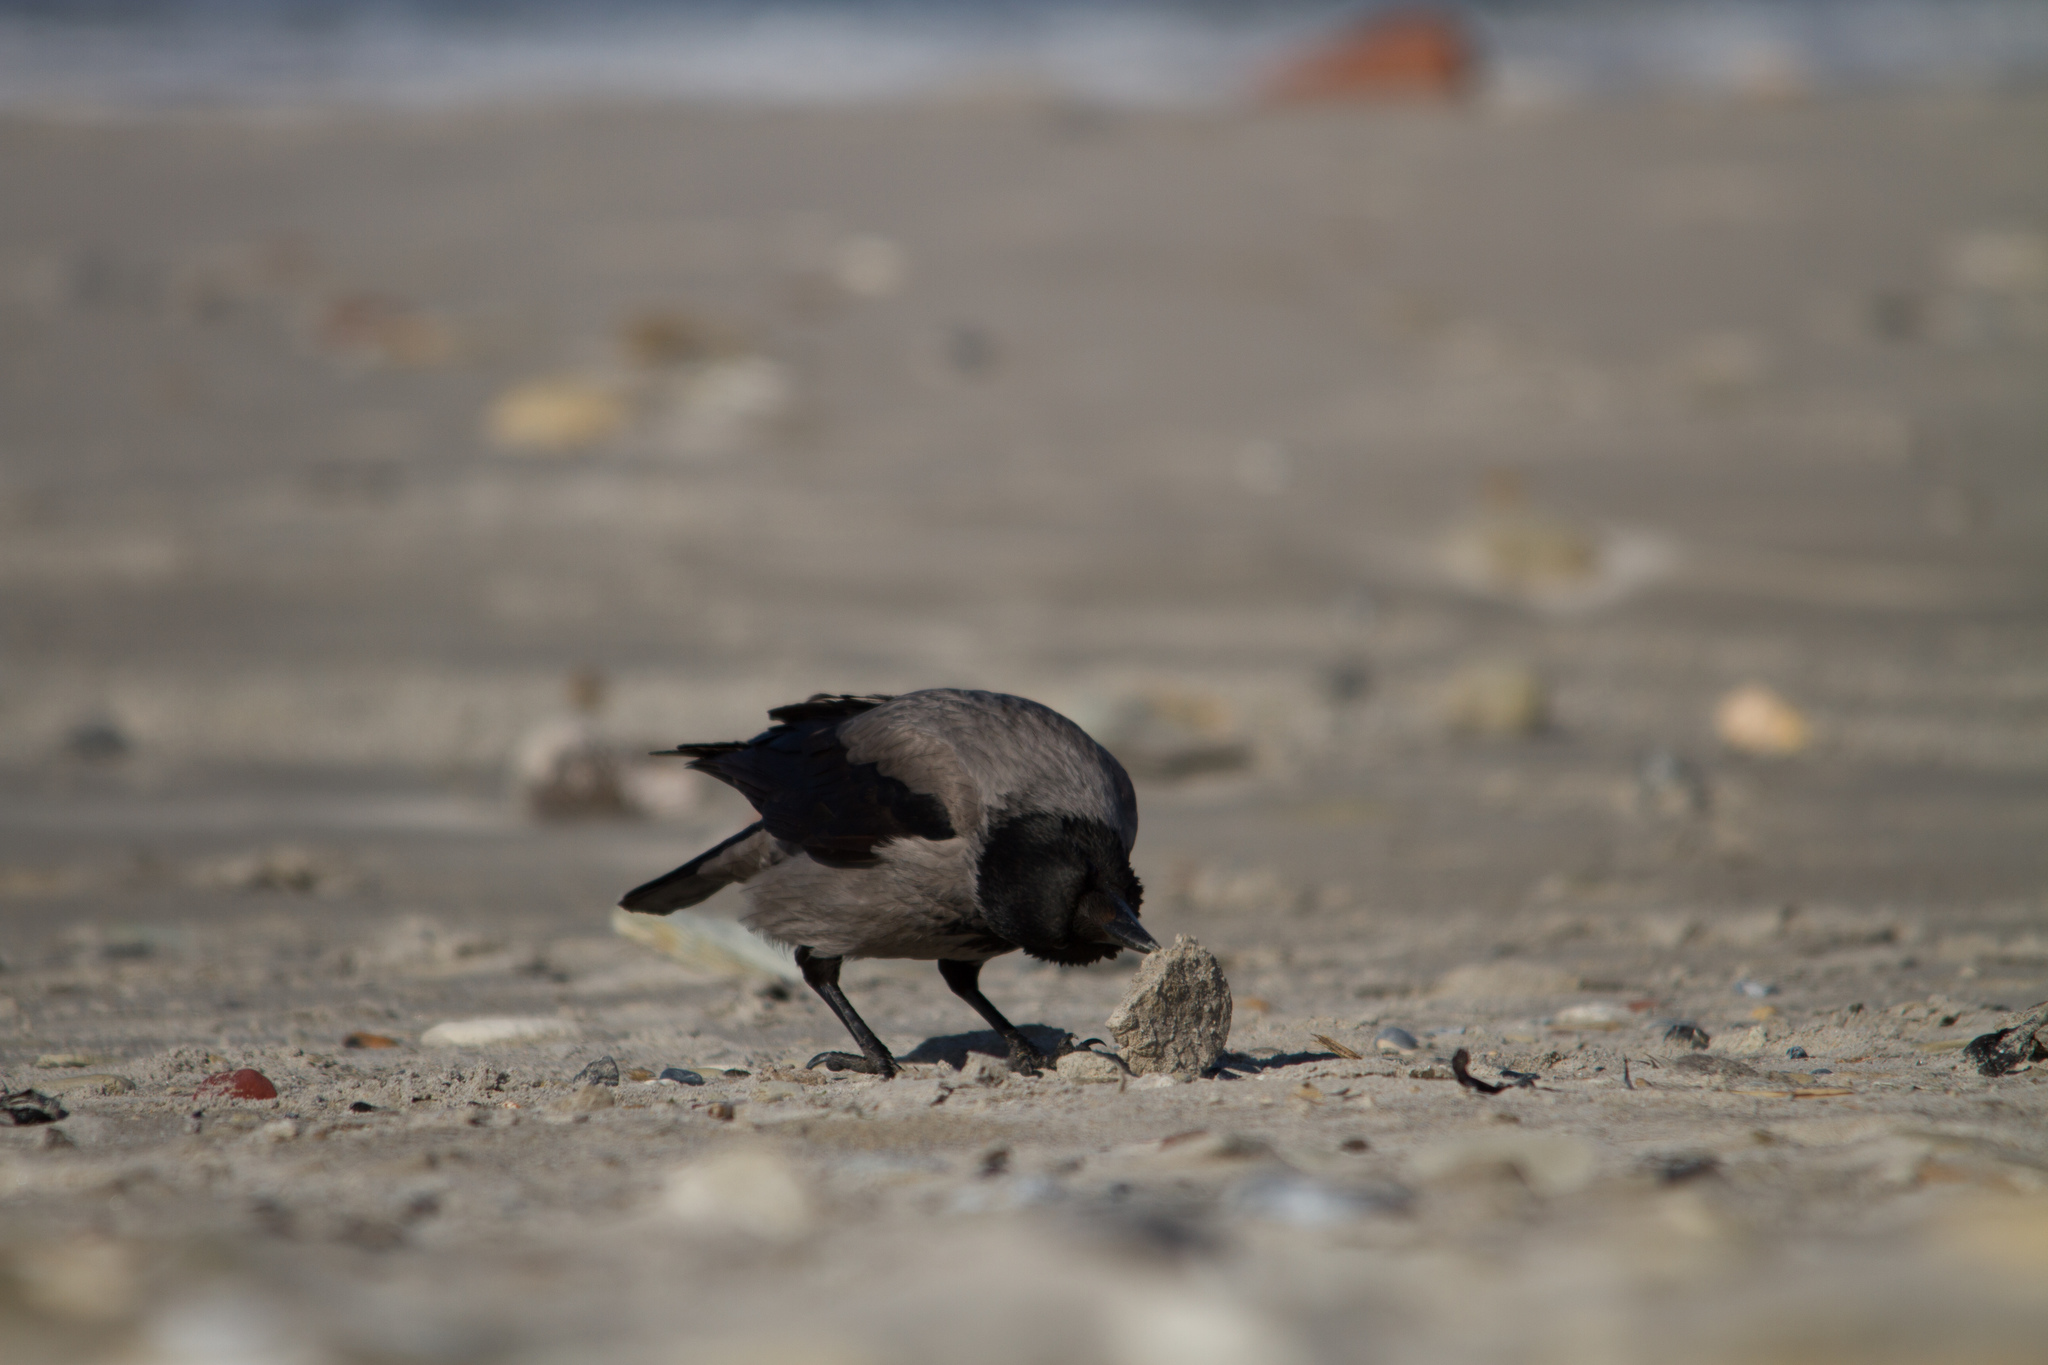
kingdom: Animalia
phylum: Chordata
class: Aves
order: Passeriformes
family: Corvidae
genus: Corvus
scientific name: Corvus cornix
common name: Hooded crow
